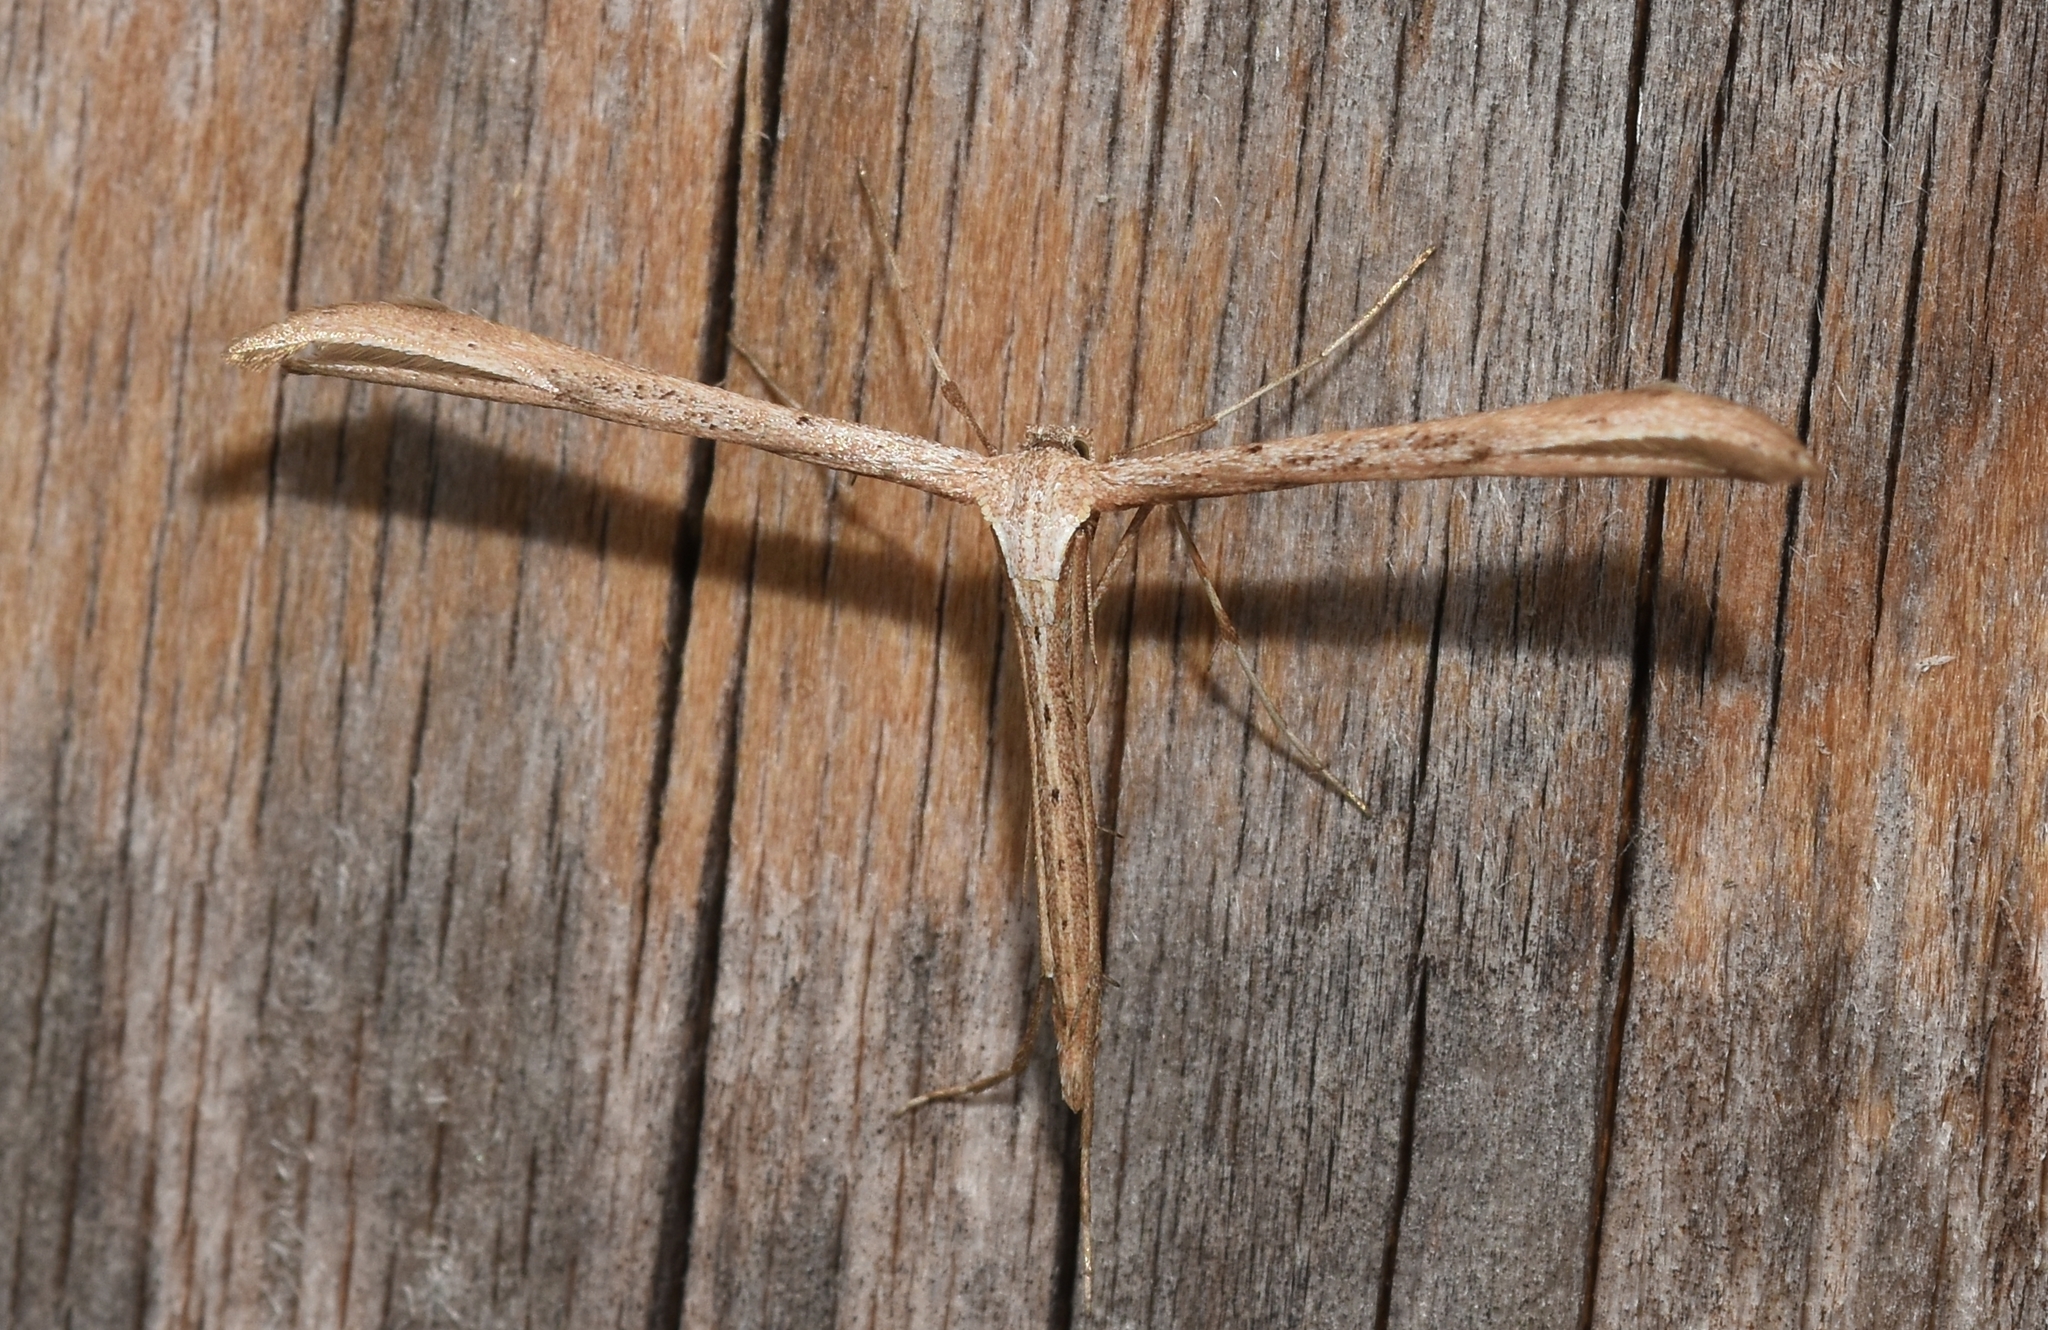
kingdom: Animalia
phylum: Arthropoda
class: Insecta
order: Lepidoptera
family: Pterophoridae
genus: Emmelina
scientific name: Emmelina monodactyla
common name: Common plume
